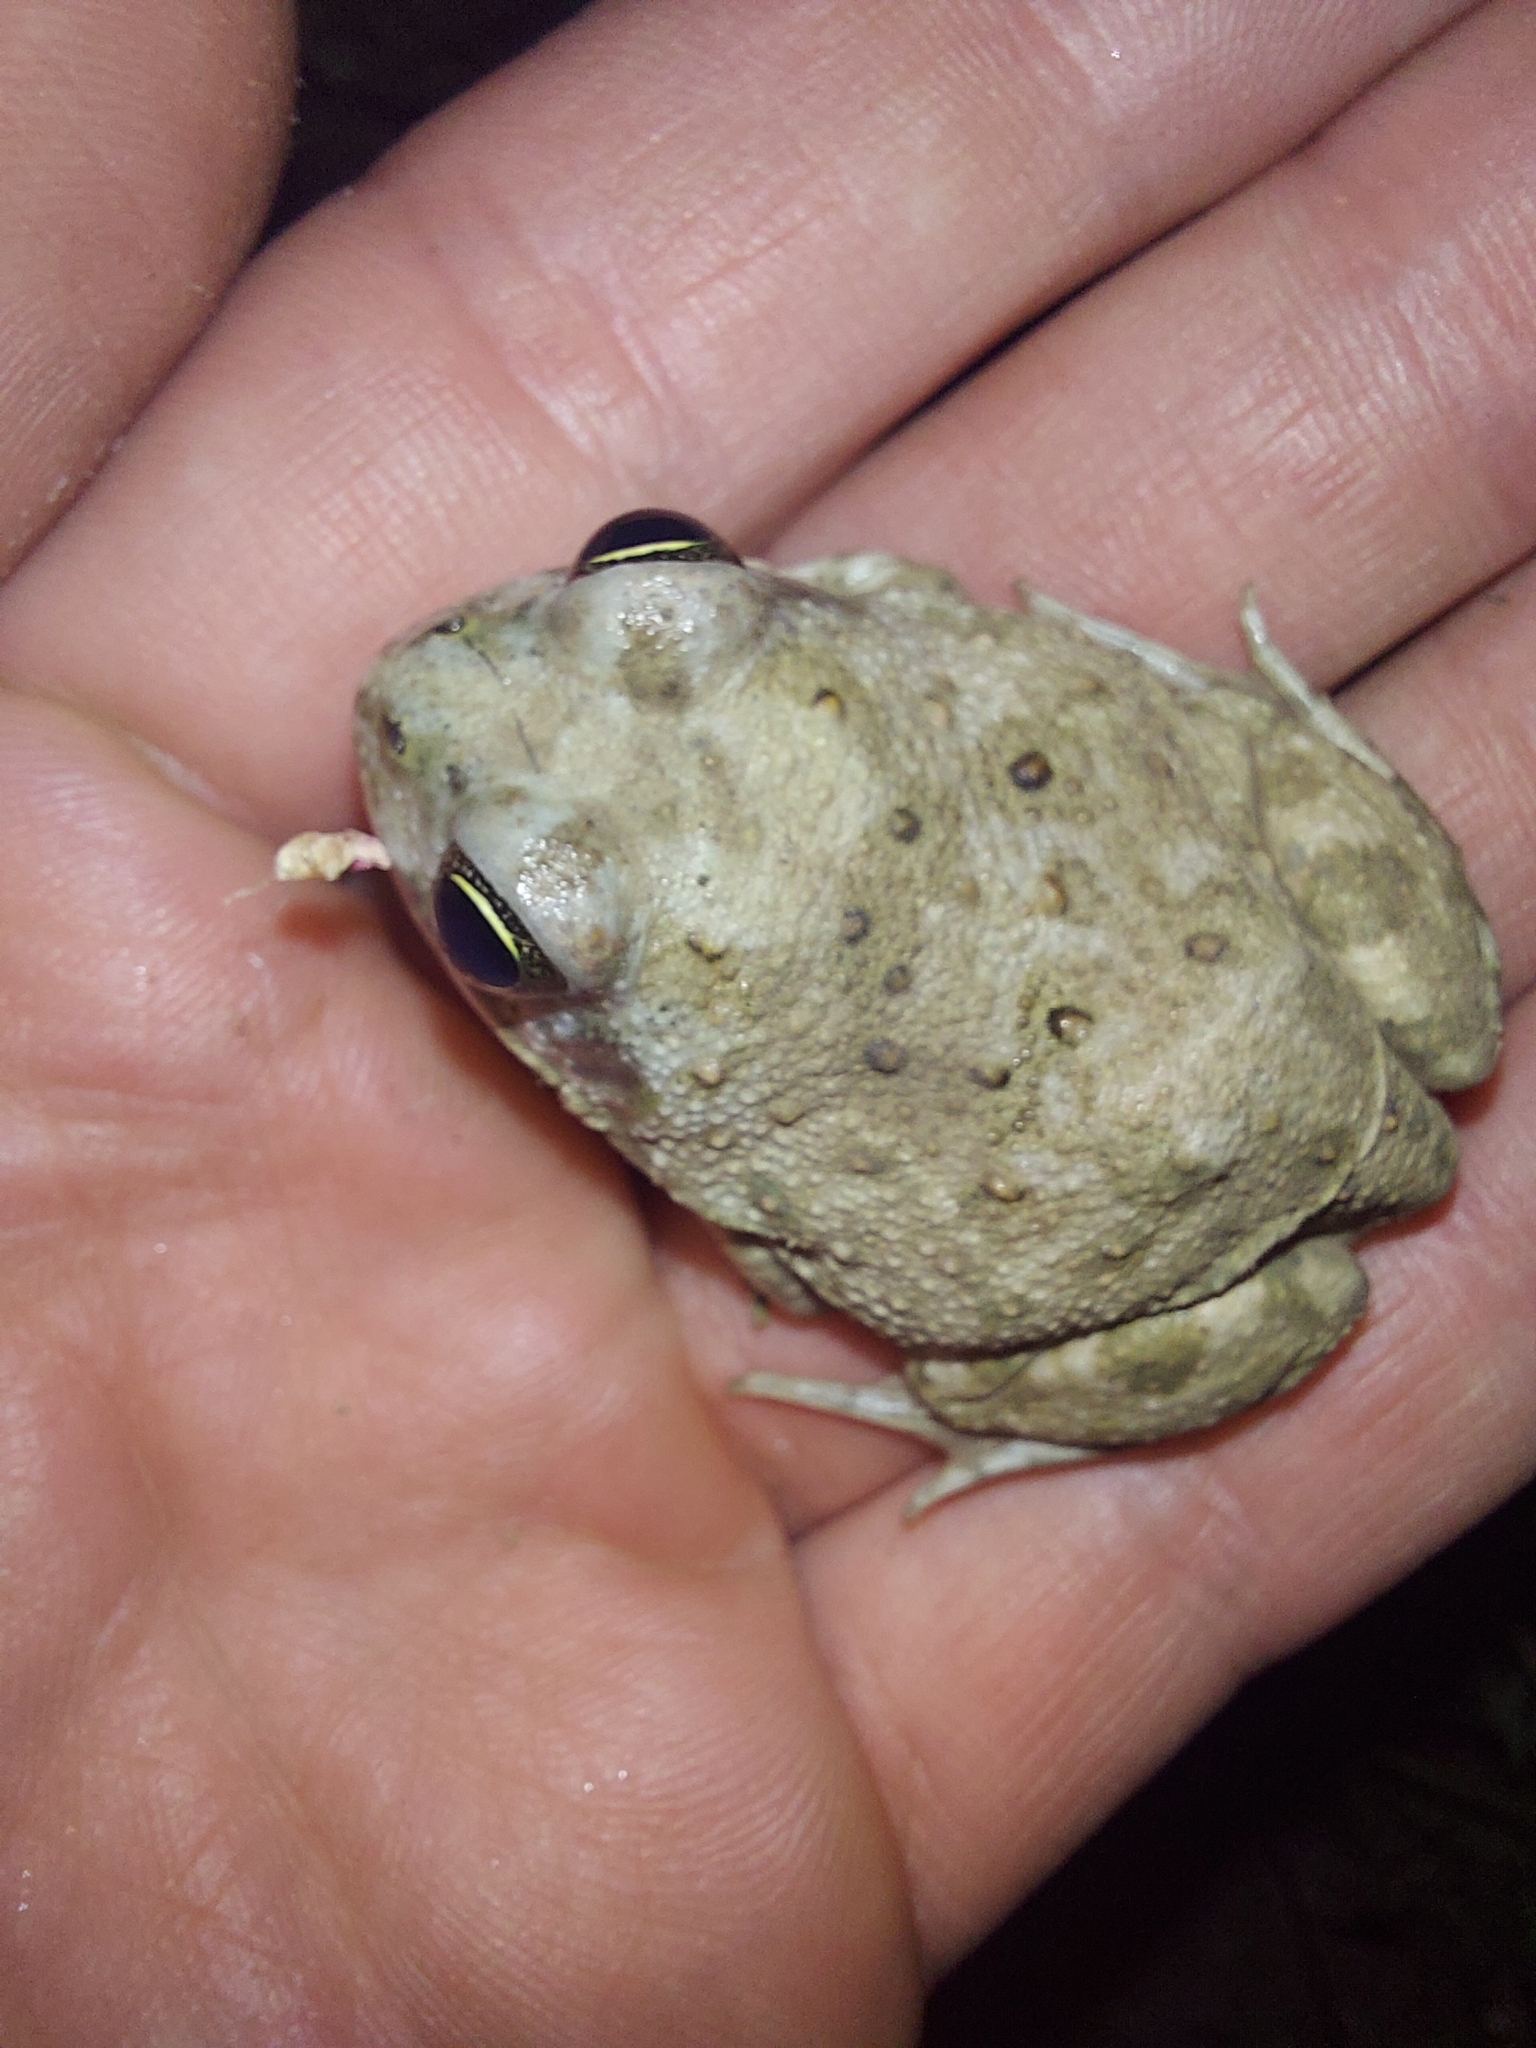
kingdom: Animalia
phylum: Chordata
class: Amphibia
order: Anura
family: Pyxicephalidae
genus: Tomopterna
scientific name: Tomopterna delalandii
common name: Delalande's burrowing bullfrog
